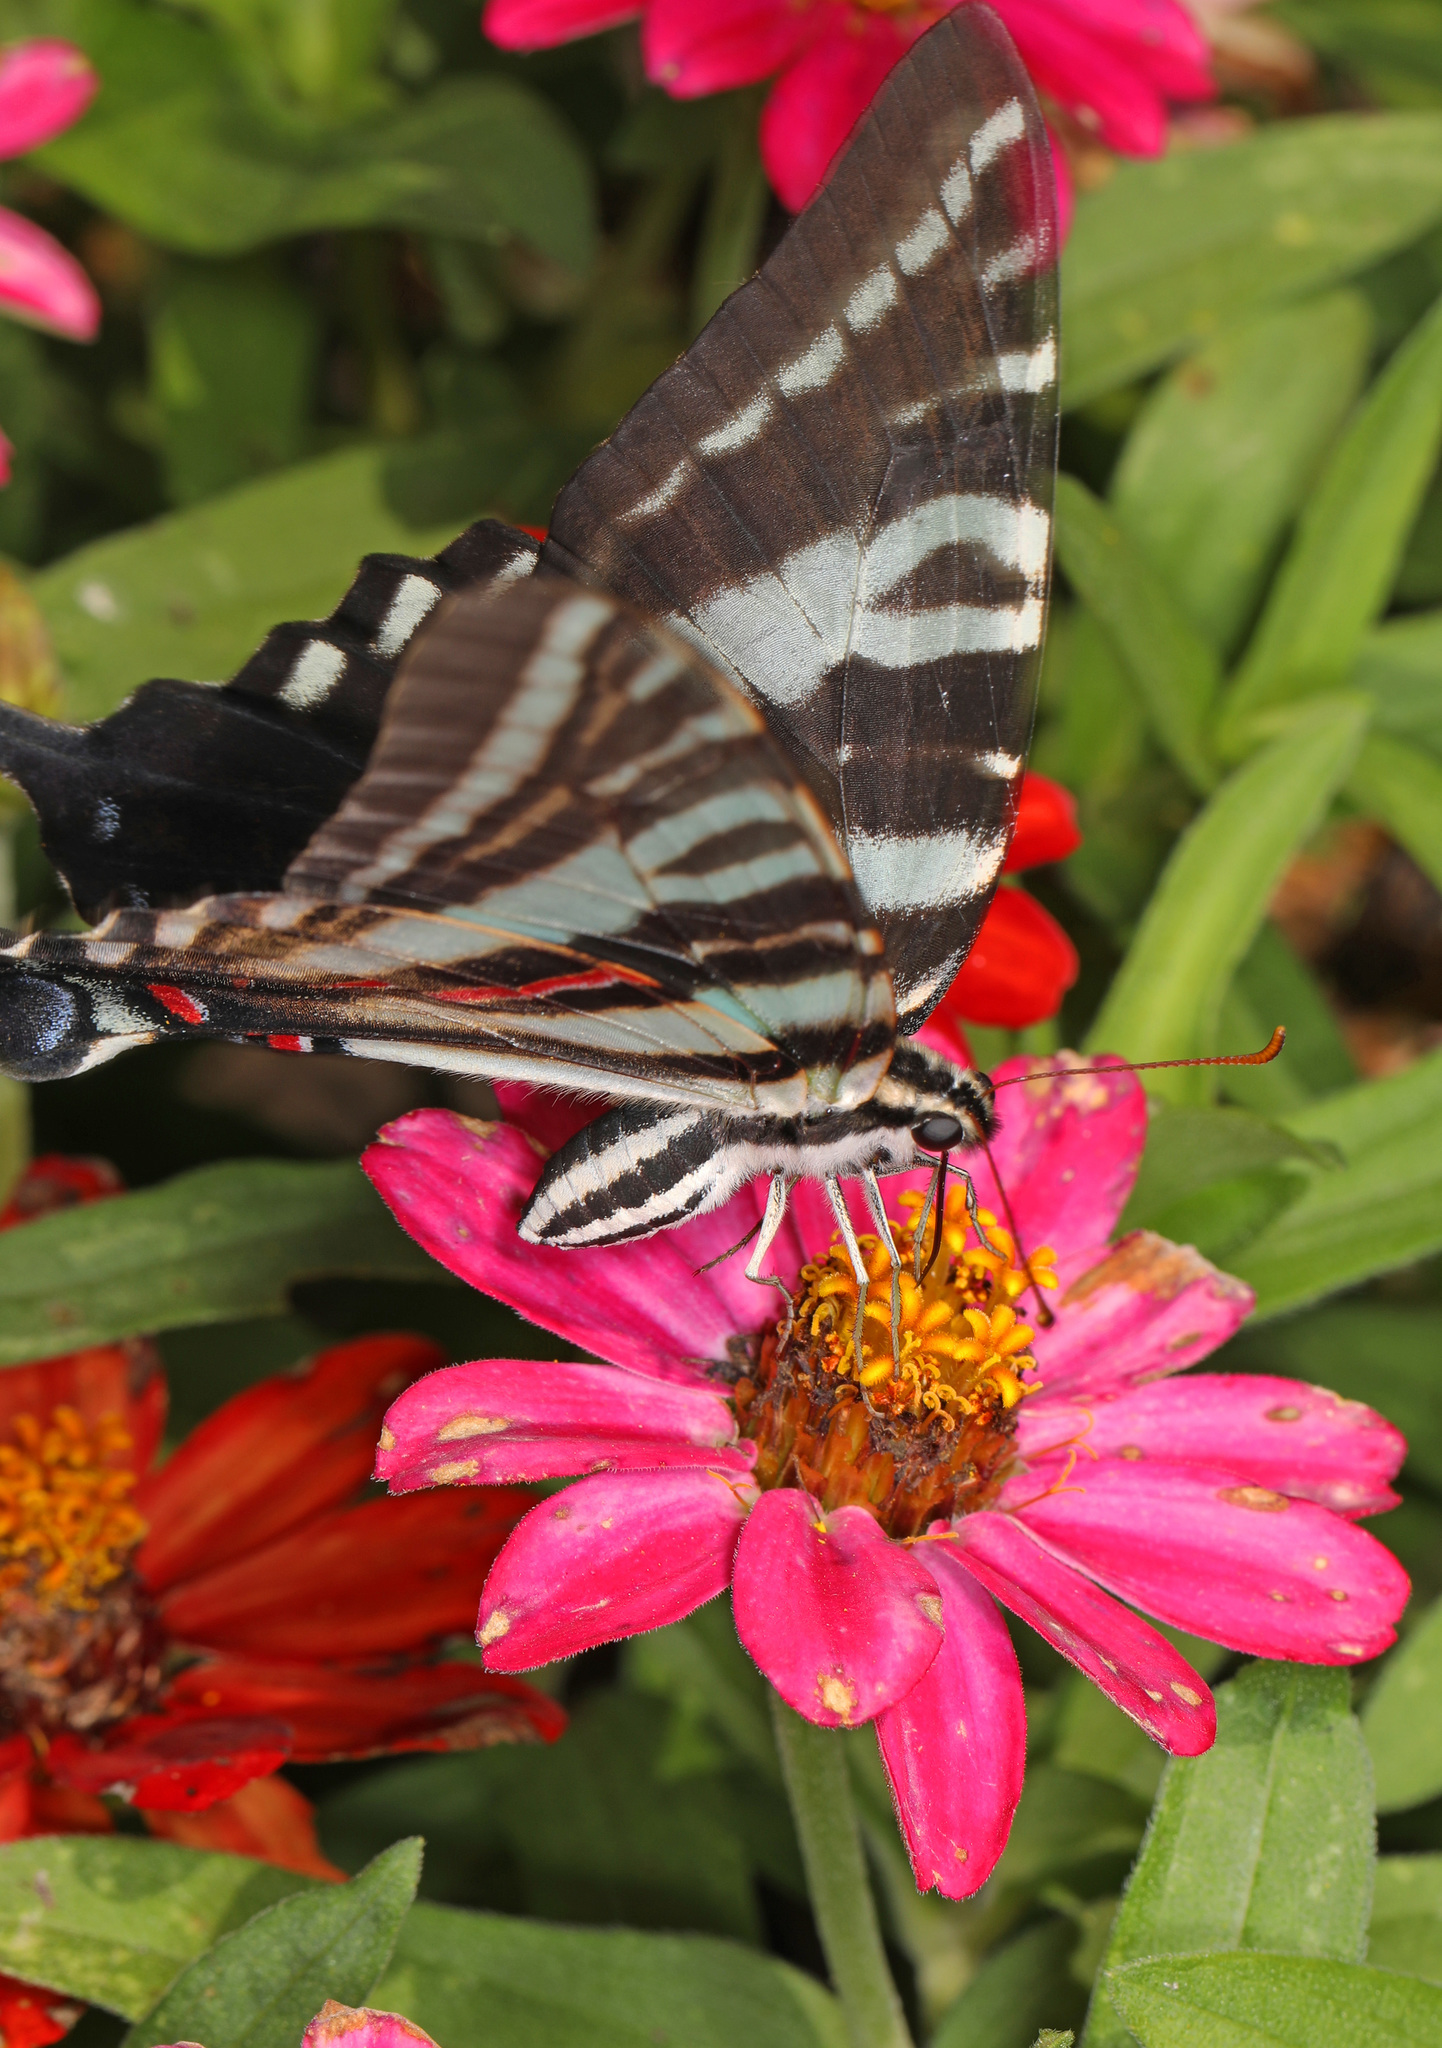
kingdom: Animalia
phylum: Arthropoda
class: Insecta
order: Lepidoptera
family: Papilionidae
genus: Protographium
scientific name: Protographium marcellus
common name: Zebra swallowtail
